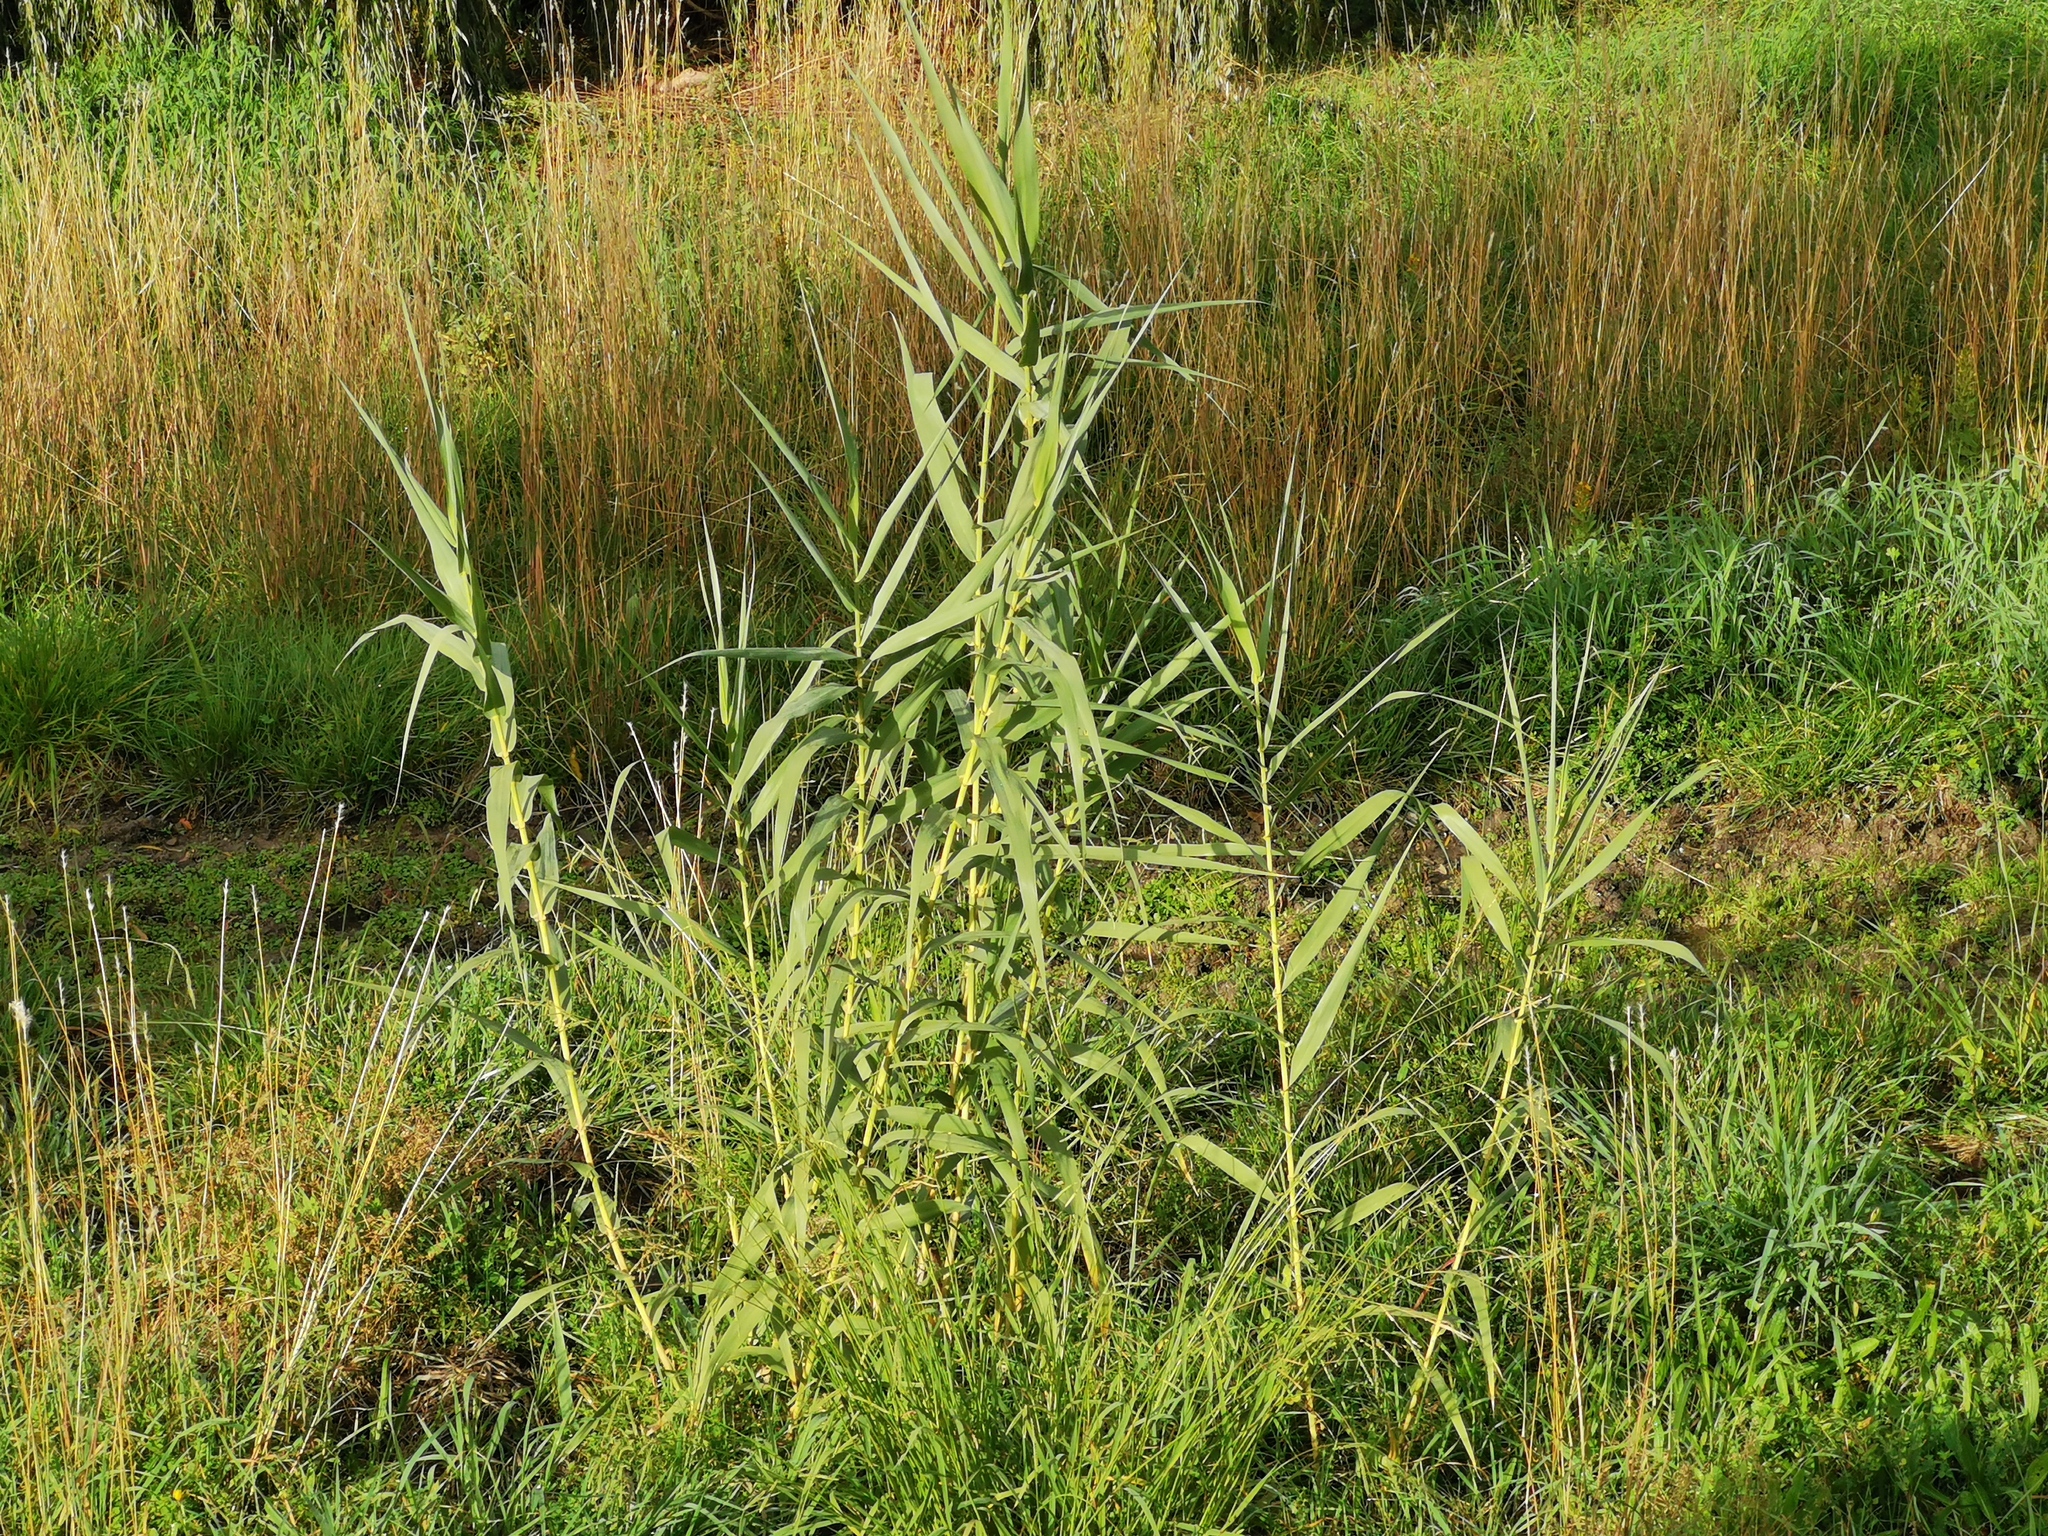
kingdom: Plantae
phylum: Tracheophyta
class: Liliopsida
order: Poales
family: Poaceae
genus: Arundo
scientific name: Arundo donax
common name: Giant reed
